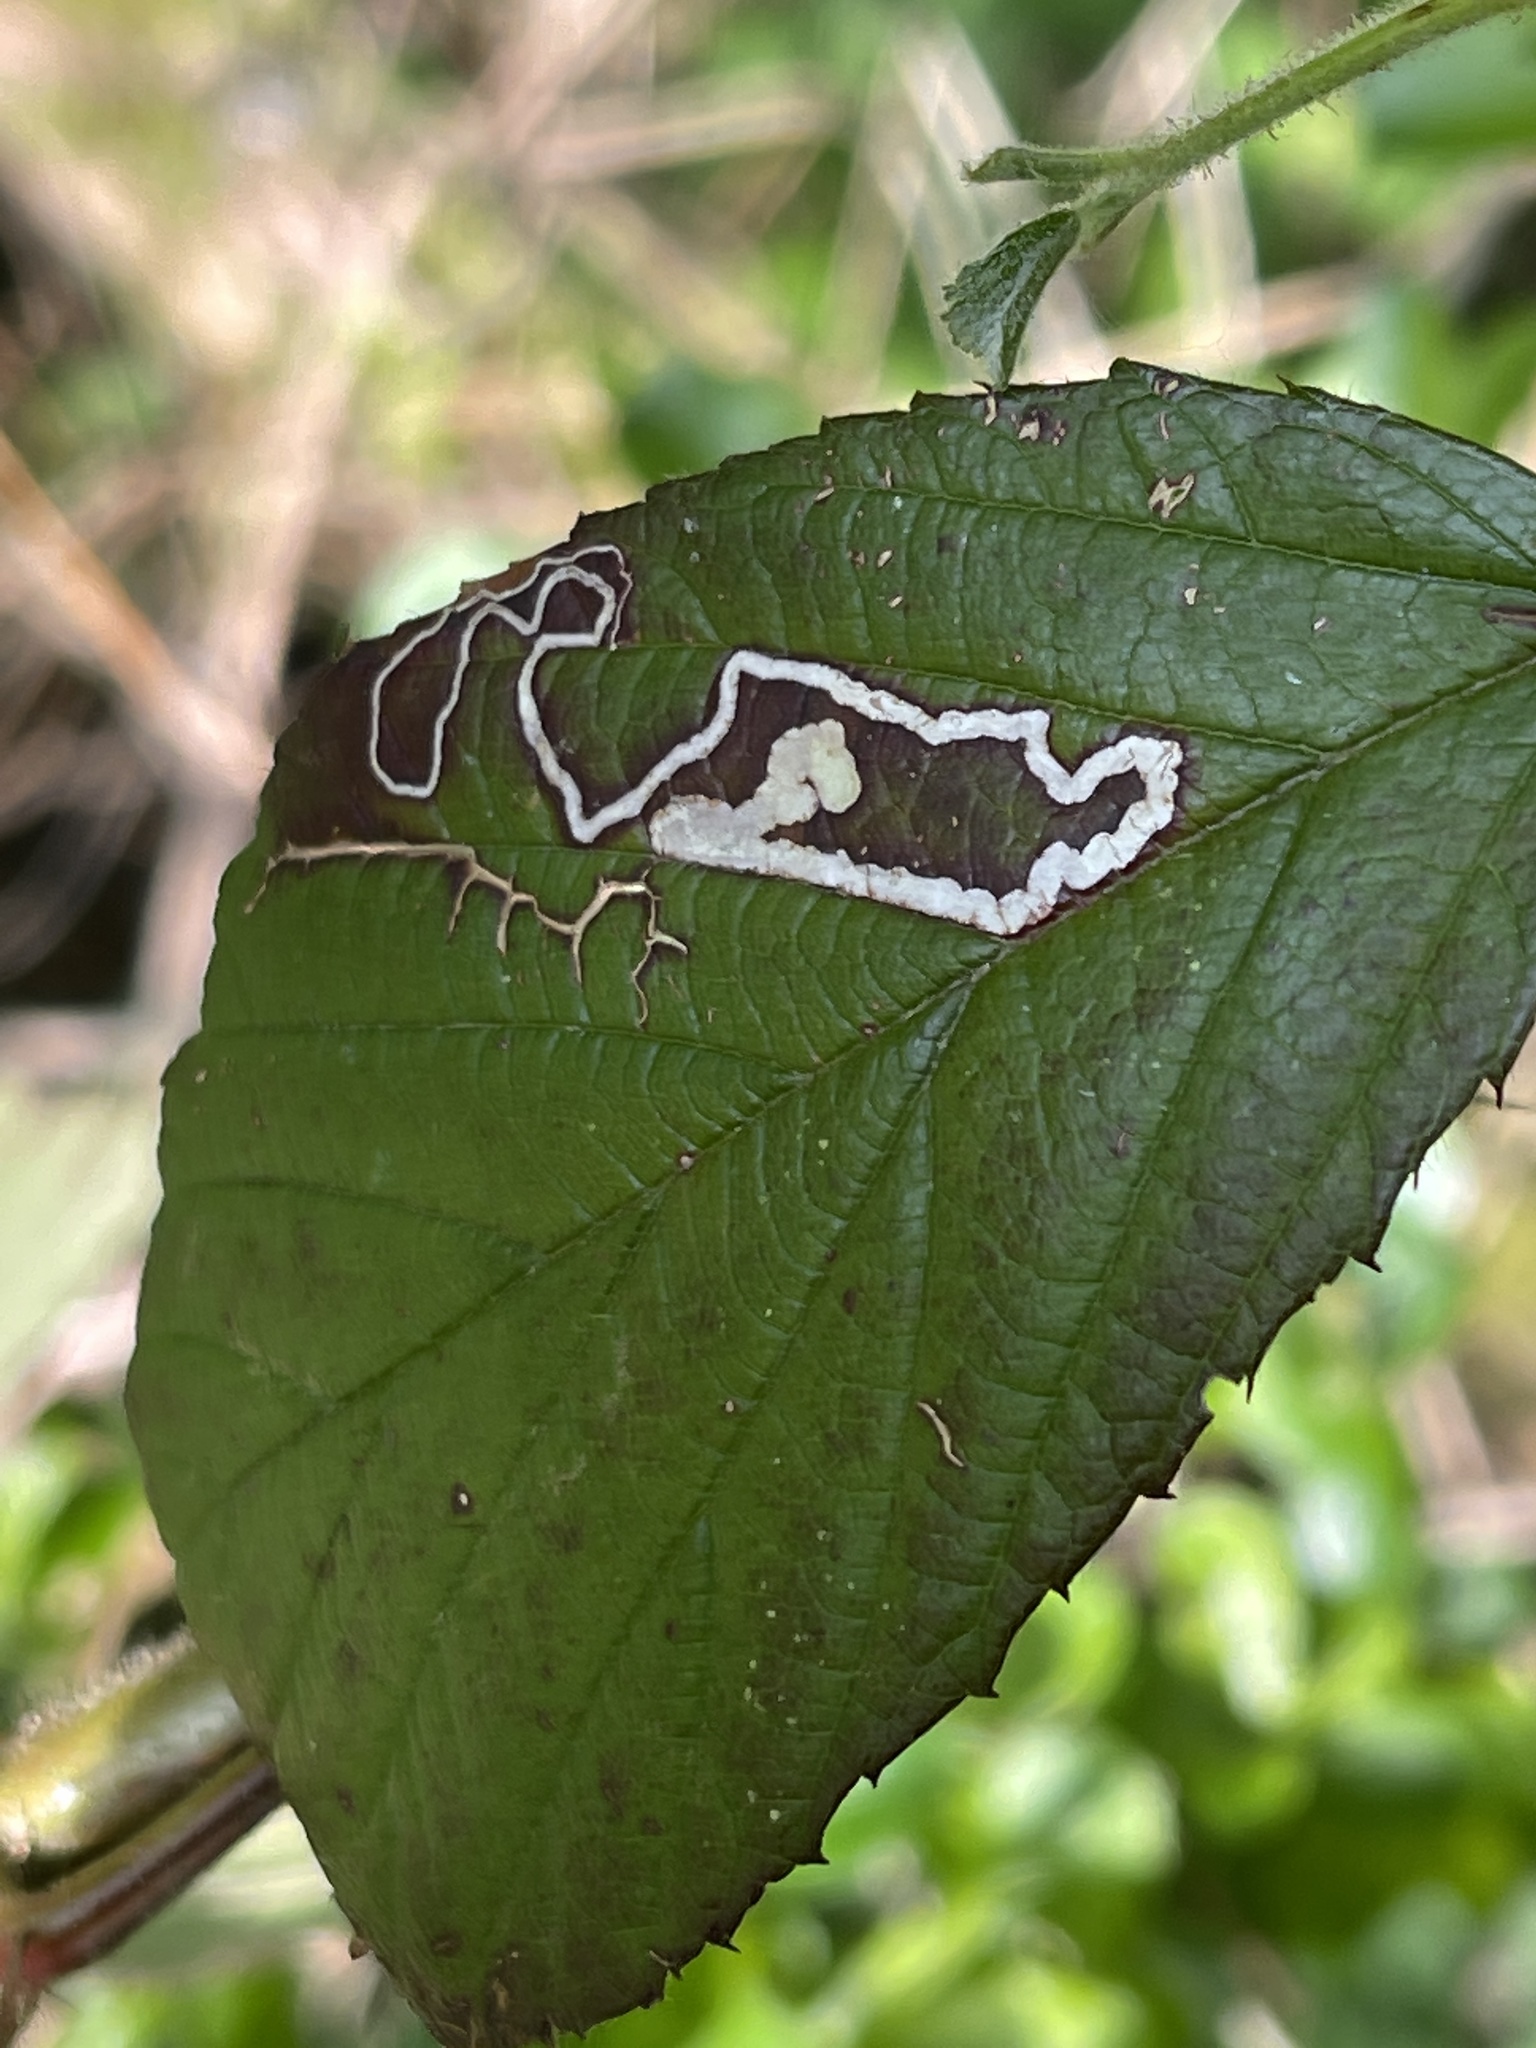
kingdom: Animalia
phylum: Arthropoda
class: Insecta
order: Lepidoptera
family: Nepticulidae
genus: Stigmella
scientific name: Stigmella aurella
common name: Golden pigmy
